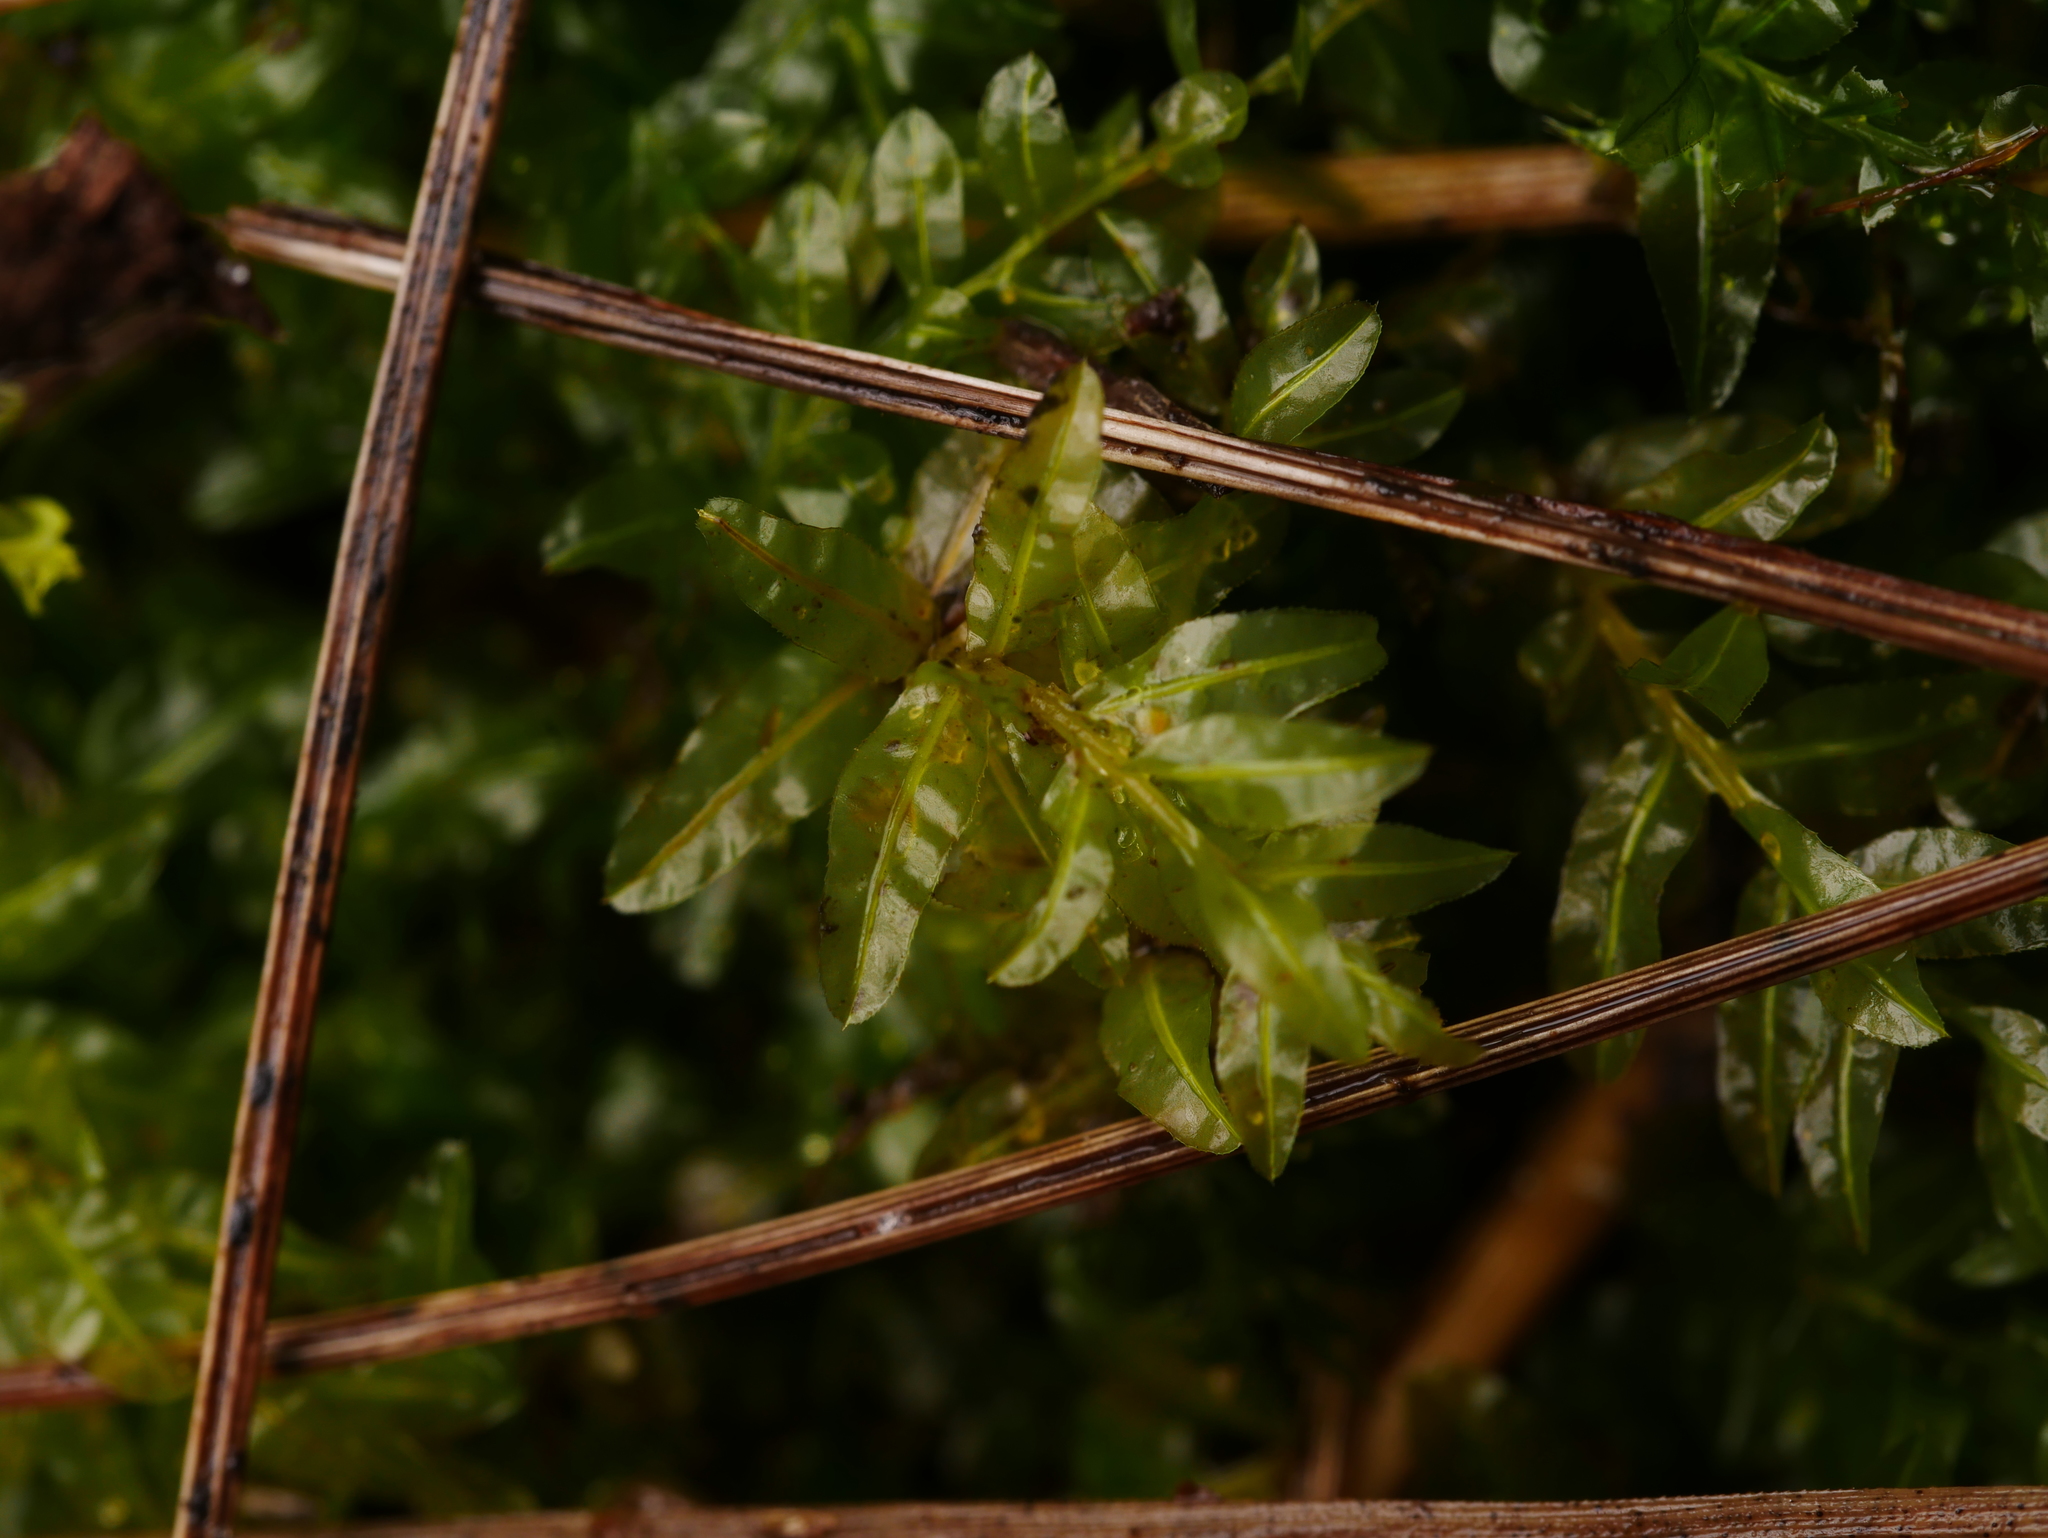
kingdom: Plantae
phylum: Bryophyta
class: Bryopsida
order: Bryales
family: Mniaceae
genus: Plagiomnium
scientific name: Plagiomnium undulatum
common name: Hart's-tongue thyme-moss
